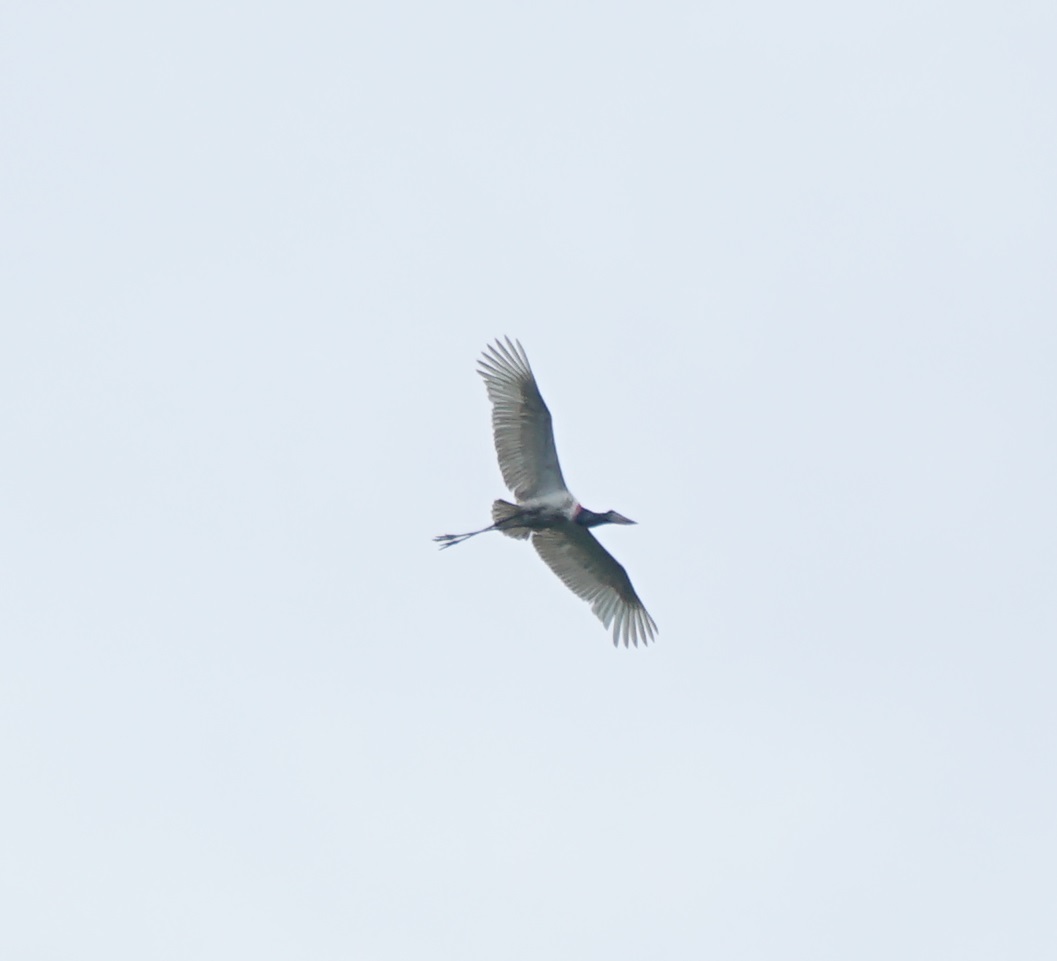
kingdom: Animalia
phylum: Chordata
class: Aves
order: Ciconiiformes
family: Ciconiidae
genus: Jabiru
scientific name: Jabiru mycteria
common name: Jabiru
